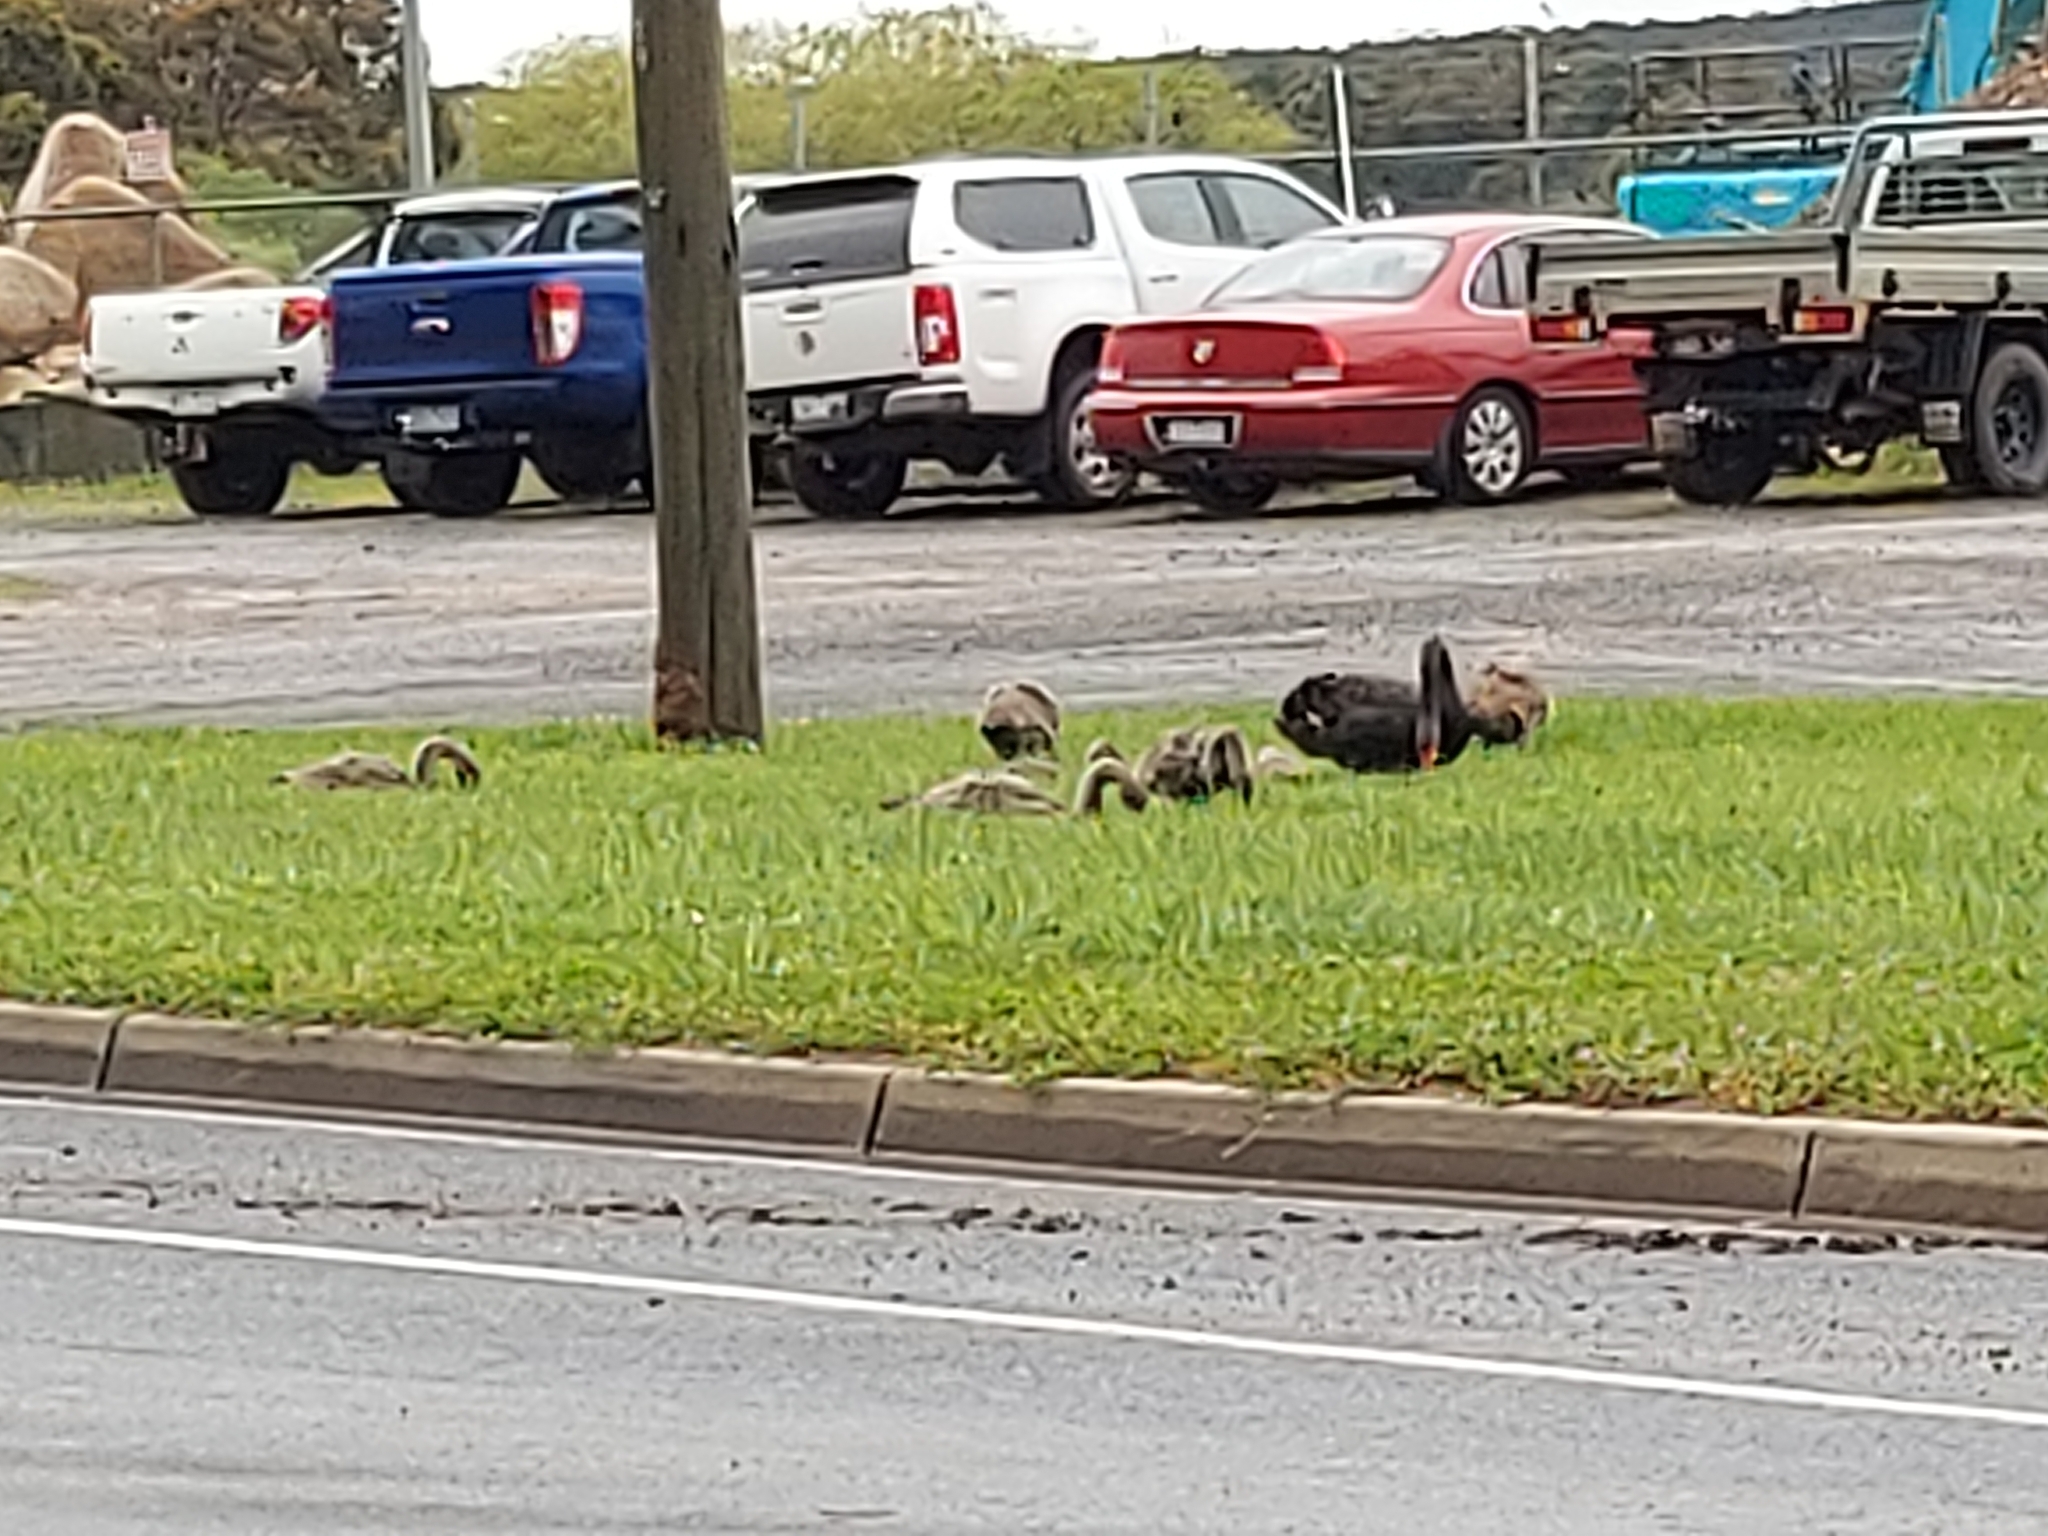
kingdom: Animalia
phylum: Chordata
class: Aves
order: Anseriformes
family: Anatidae
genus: Cygnus
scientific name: Cygnus atratus
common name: Black swan
